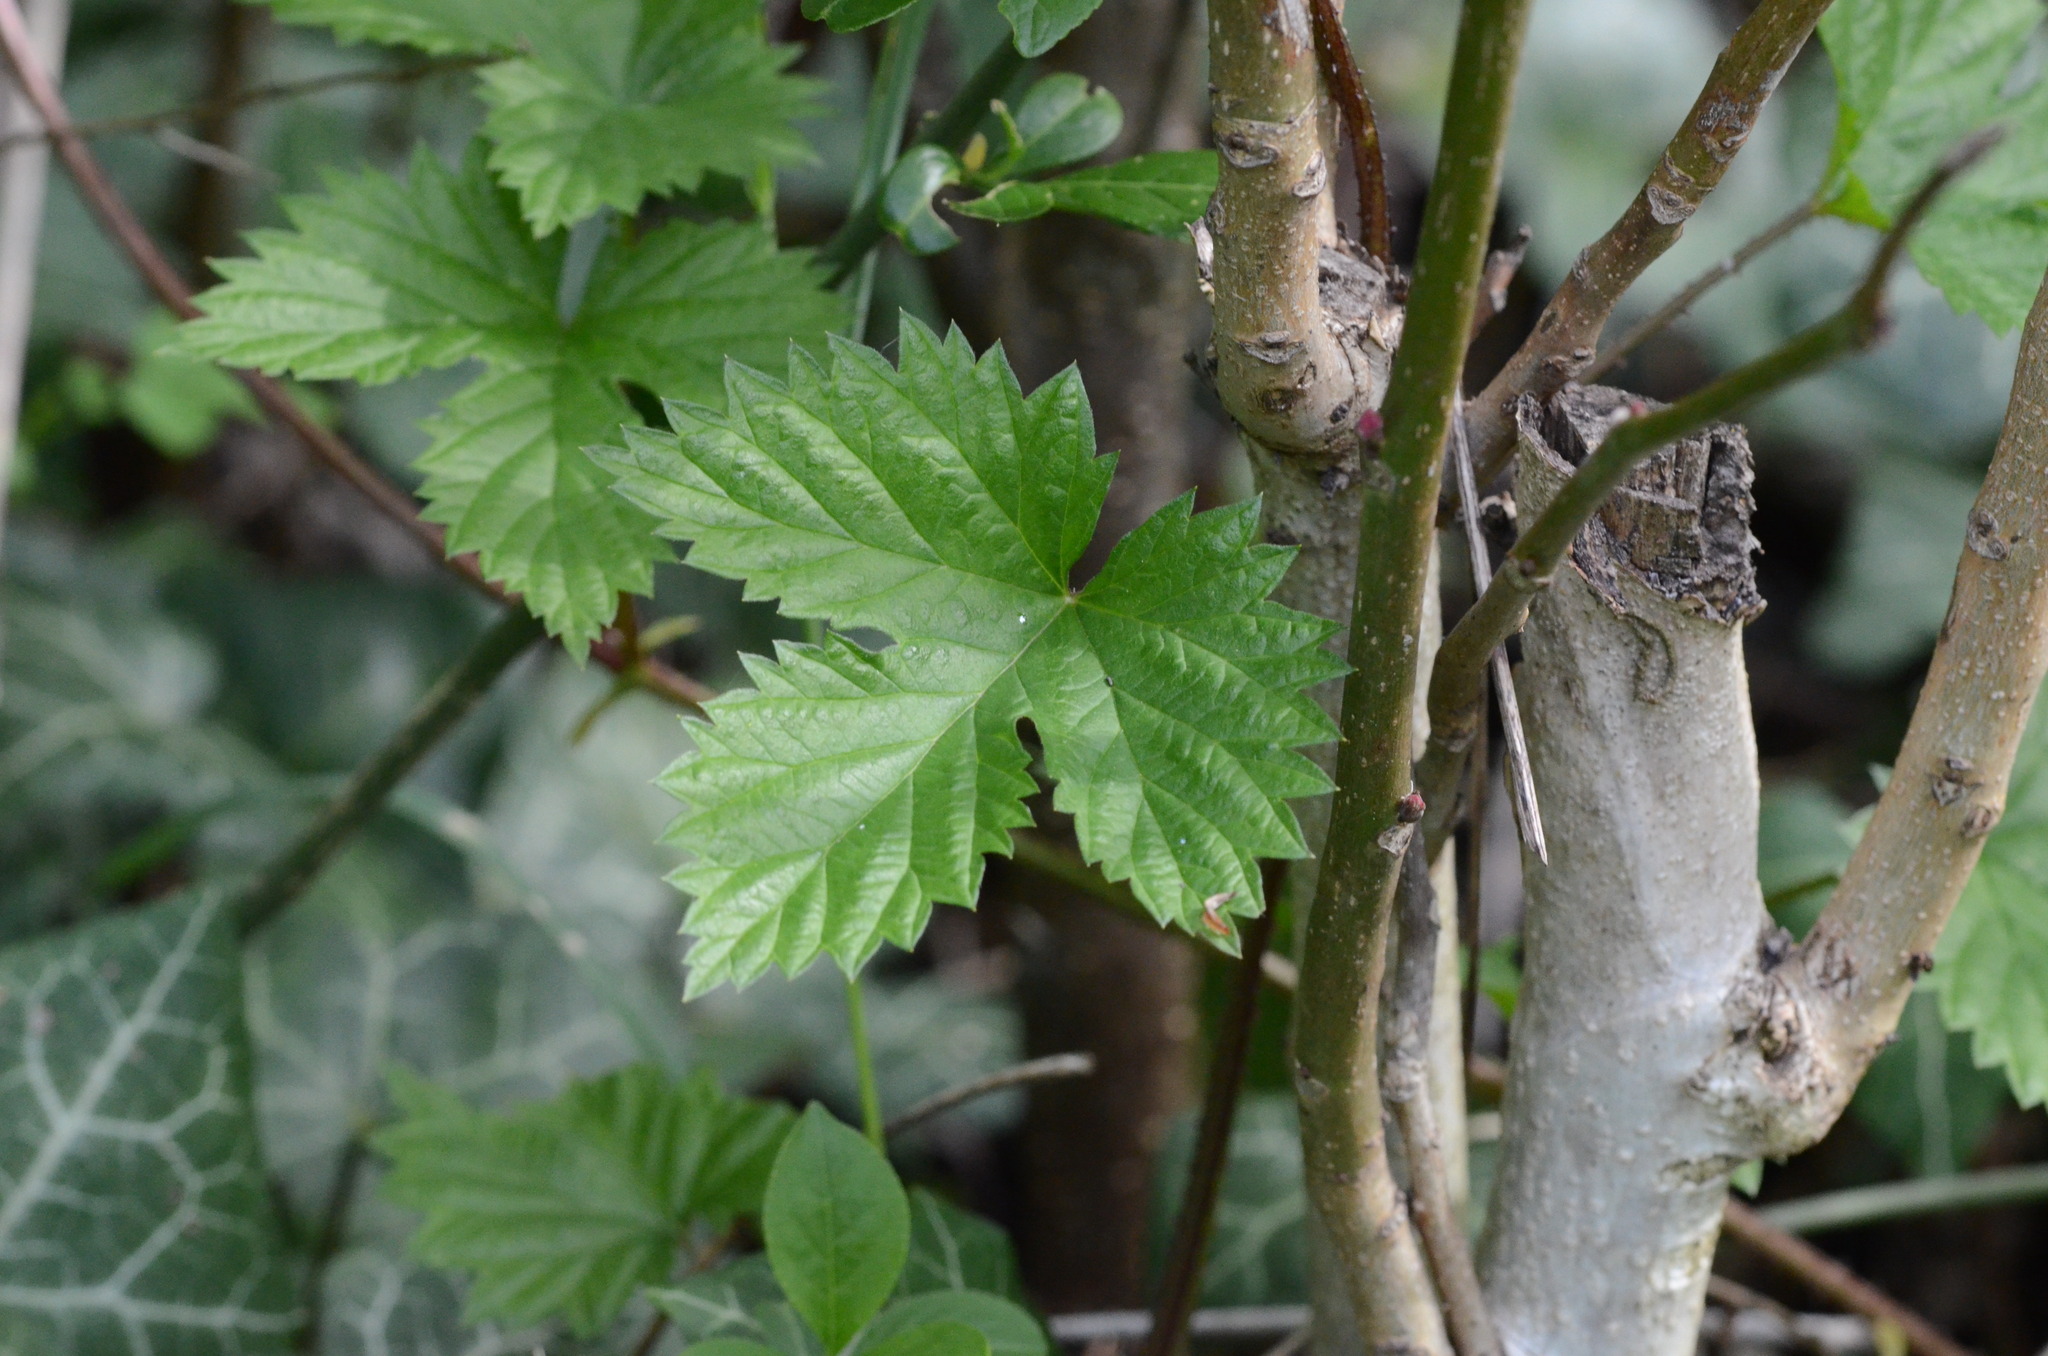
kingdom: Plantae
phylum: Tracheophyta
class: Magnoliopsida
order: Rosales
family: Cannabaceae
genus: Humulus
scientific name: Humulus lupulus
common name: Hop
